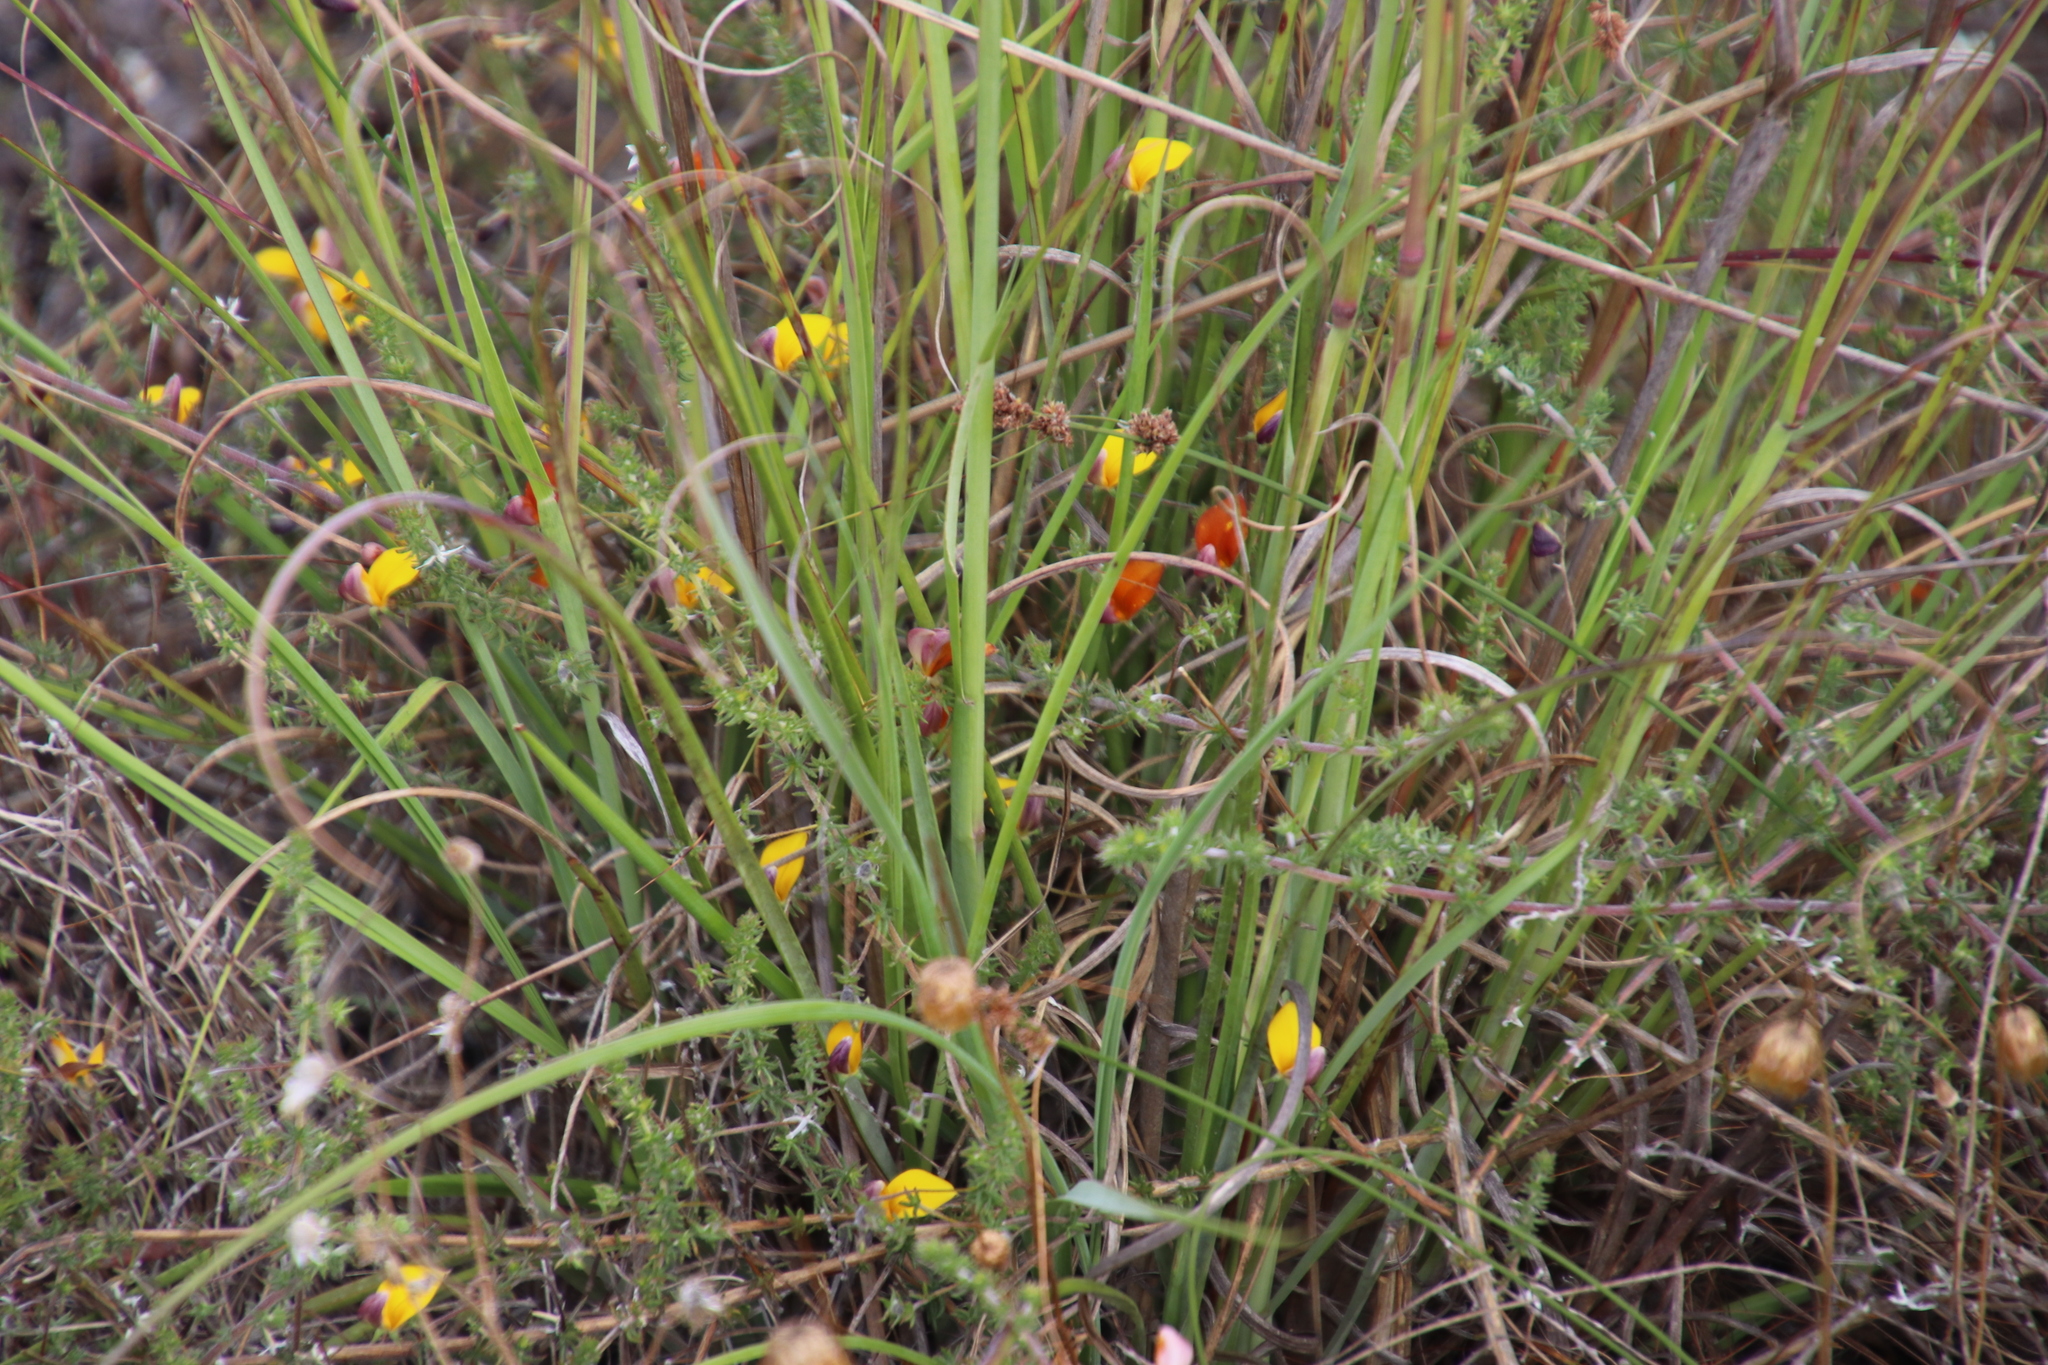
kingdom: Plantae
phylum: Tracheophyta
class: Magnoliopsida
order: Fabales
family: Fabaceae
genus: Aspalathus
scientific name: Aspalathus retroflexa
